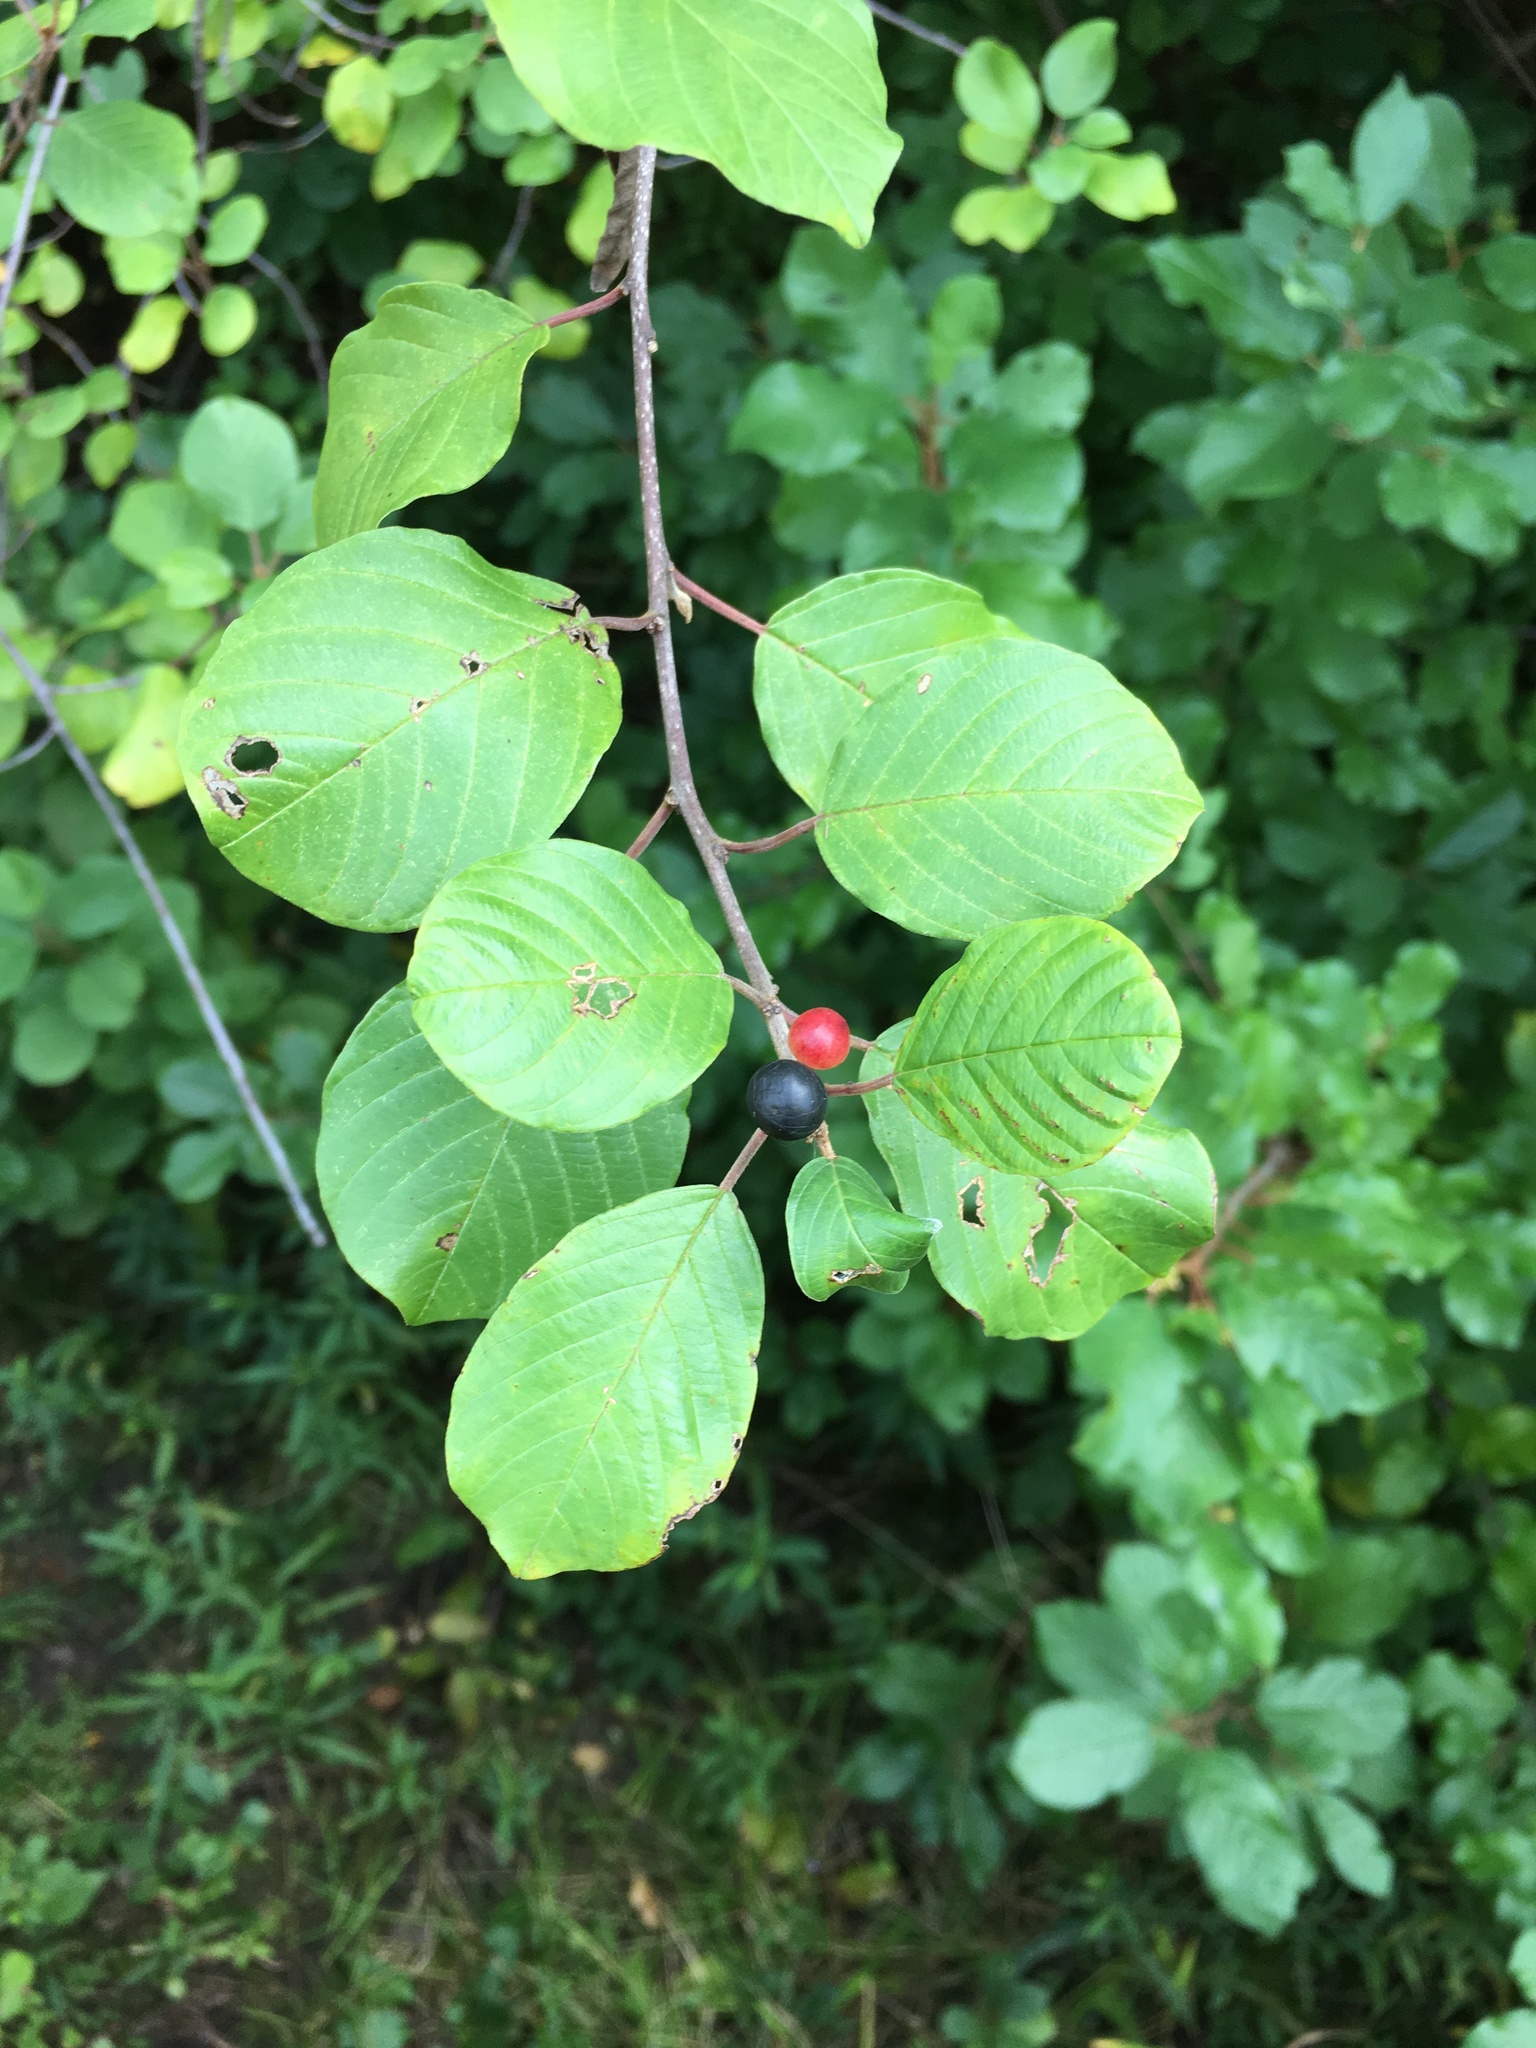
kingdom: Plantae
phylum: Tracheophyta
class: Magnoliopsida
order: Rosales
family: Rhamnaceae
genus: Frangula
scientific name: Frangula alnus
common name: Alder buckthorn
